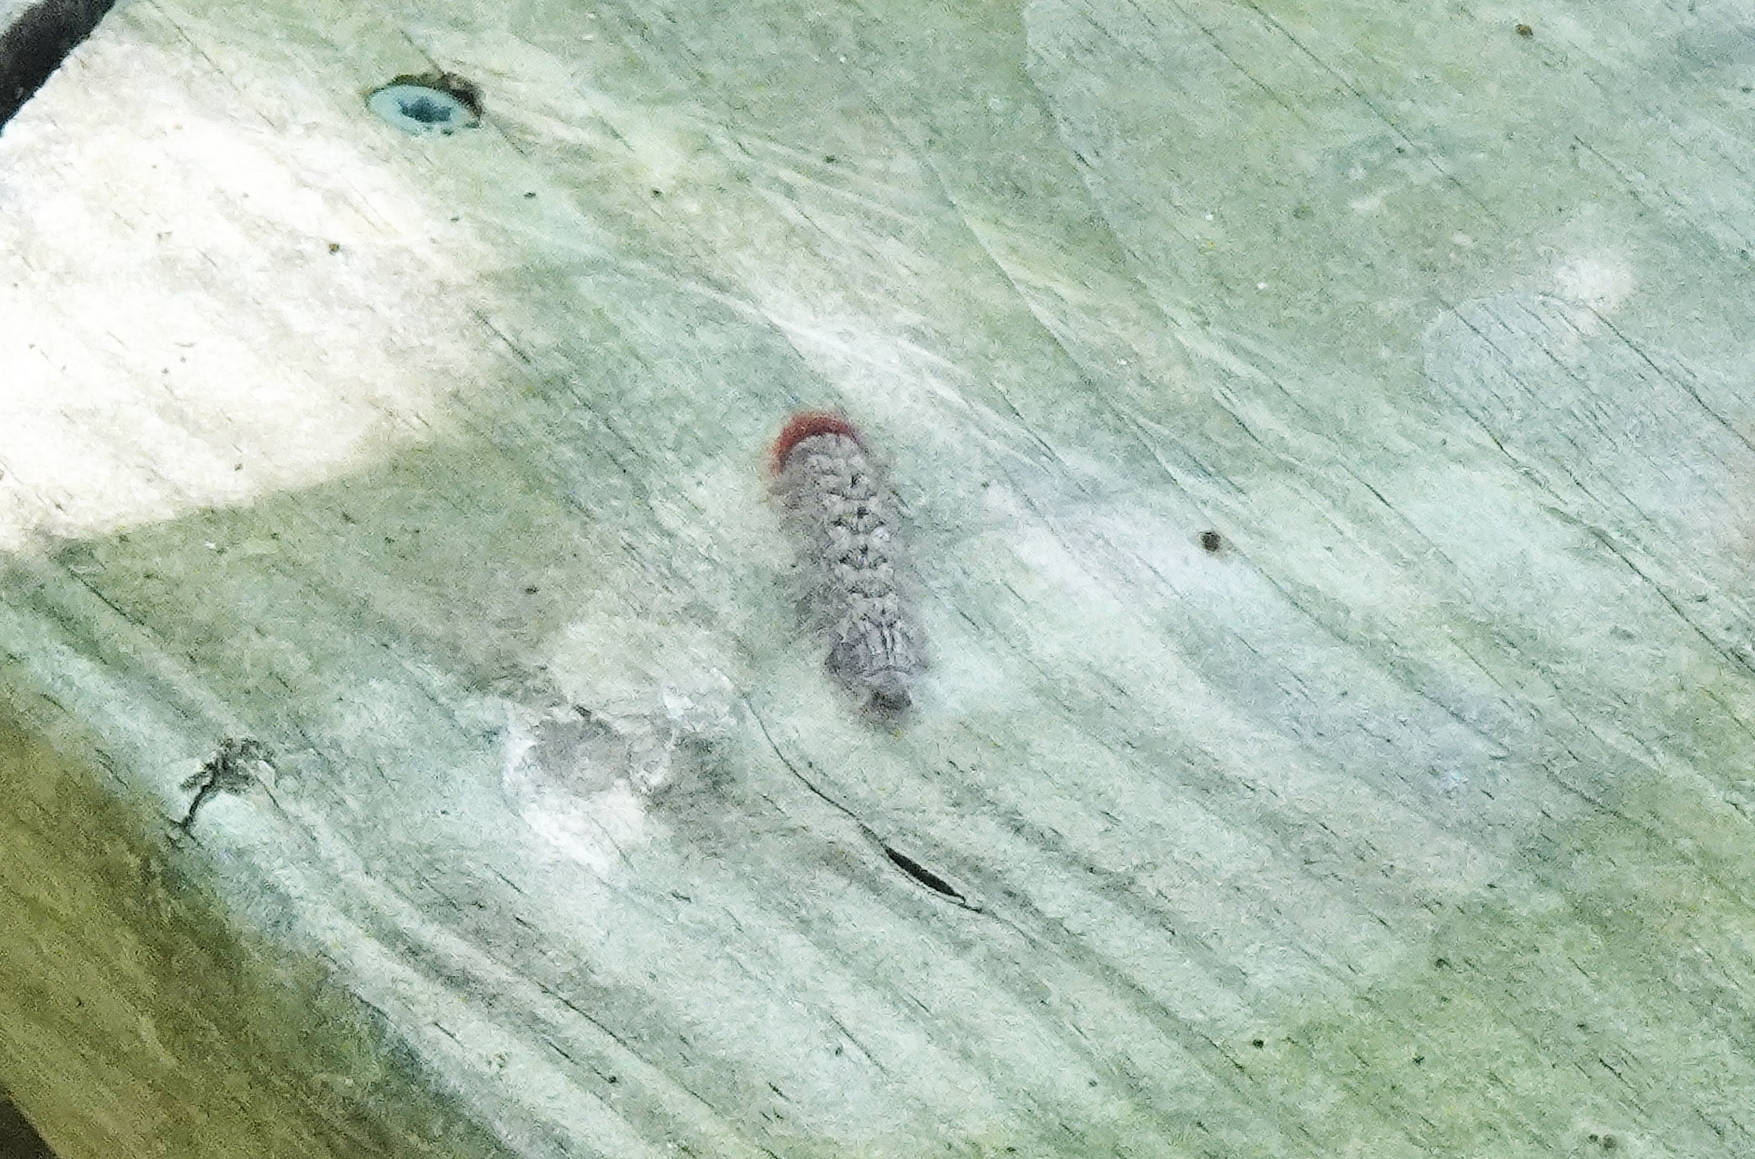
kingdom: Animalia
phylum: Arthropoda
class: Insecta
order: Lepidoptera
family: Apatelodidae
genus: Olceclostera
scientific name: Olceclostera angelica
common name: Angel moth
